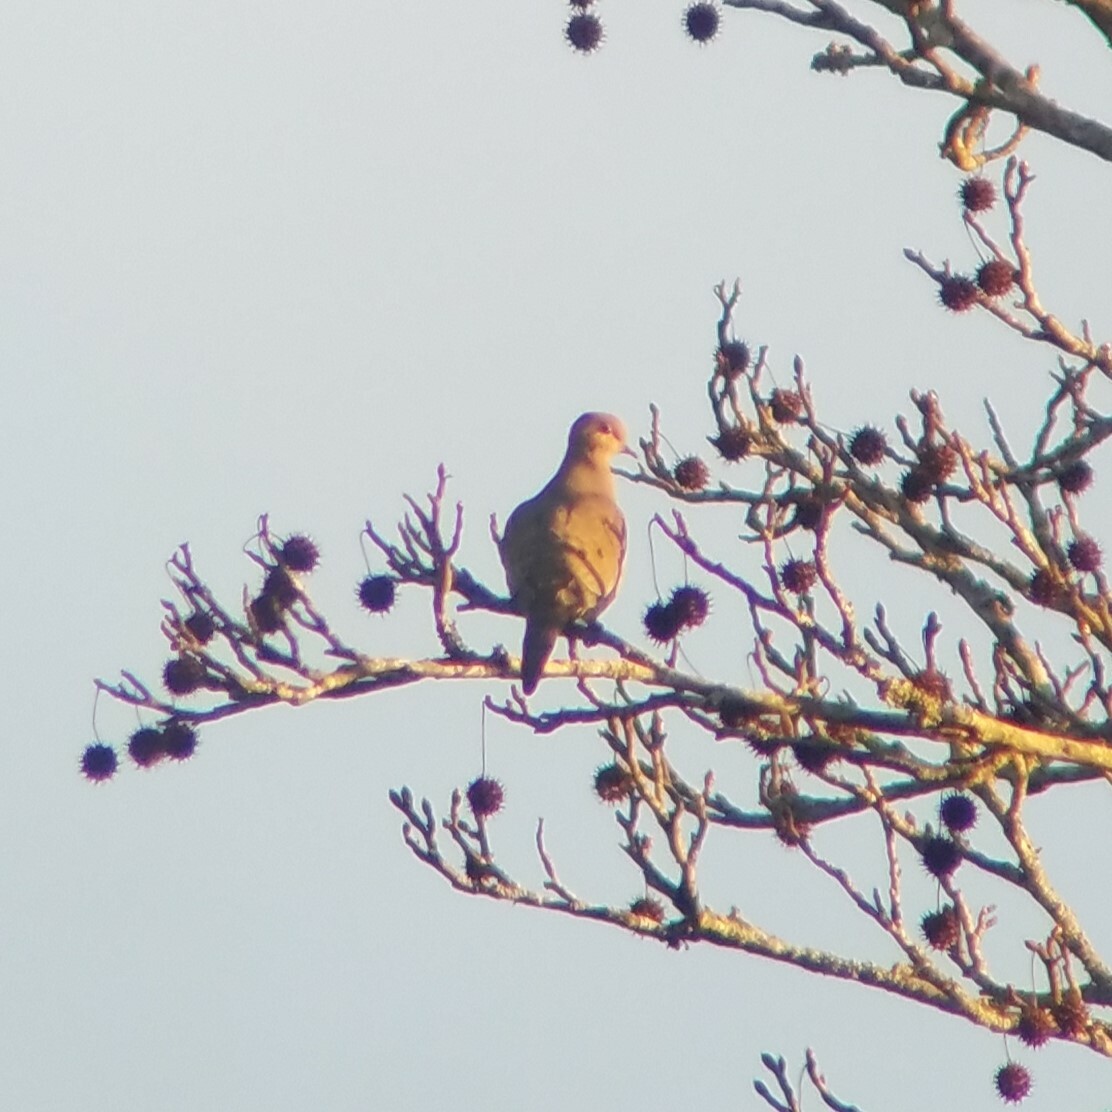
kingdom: Animalia
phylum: Chordata
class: Aves
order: Columbiformes
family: Columbidae
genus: Zenaida
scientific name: Zenaida macroura
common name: Mourning dove
